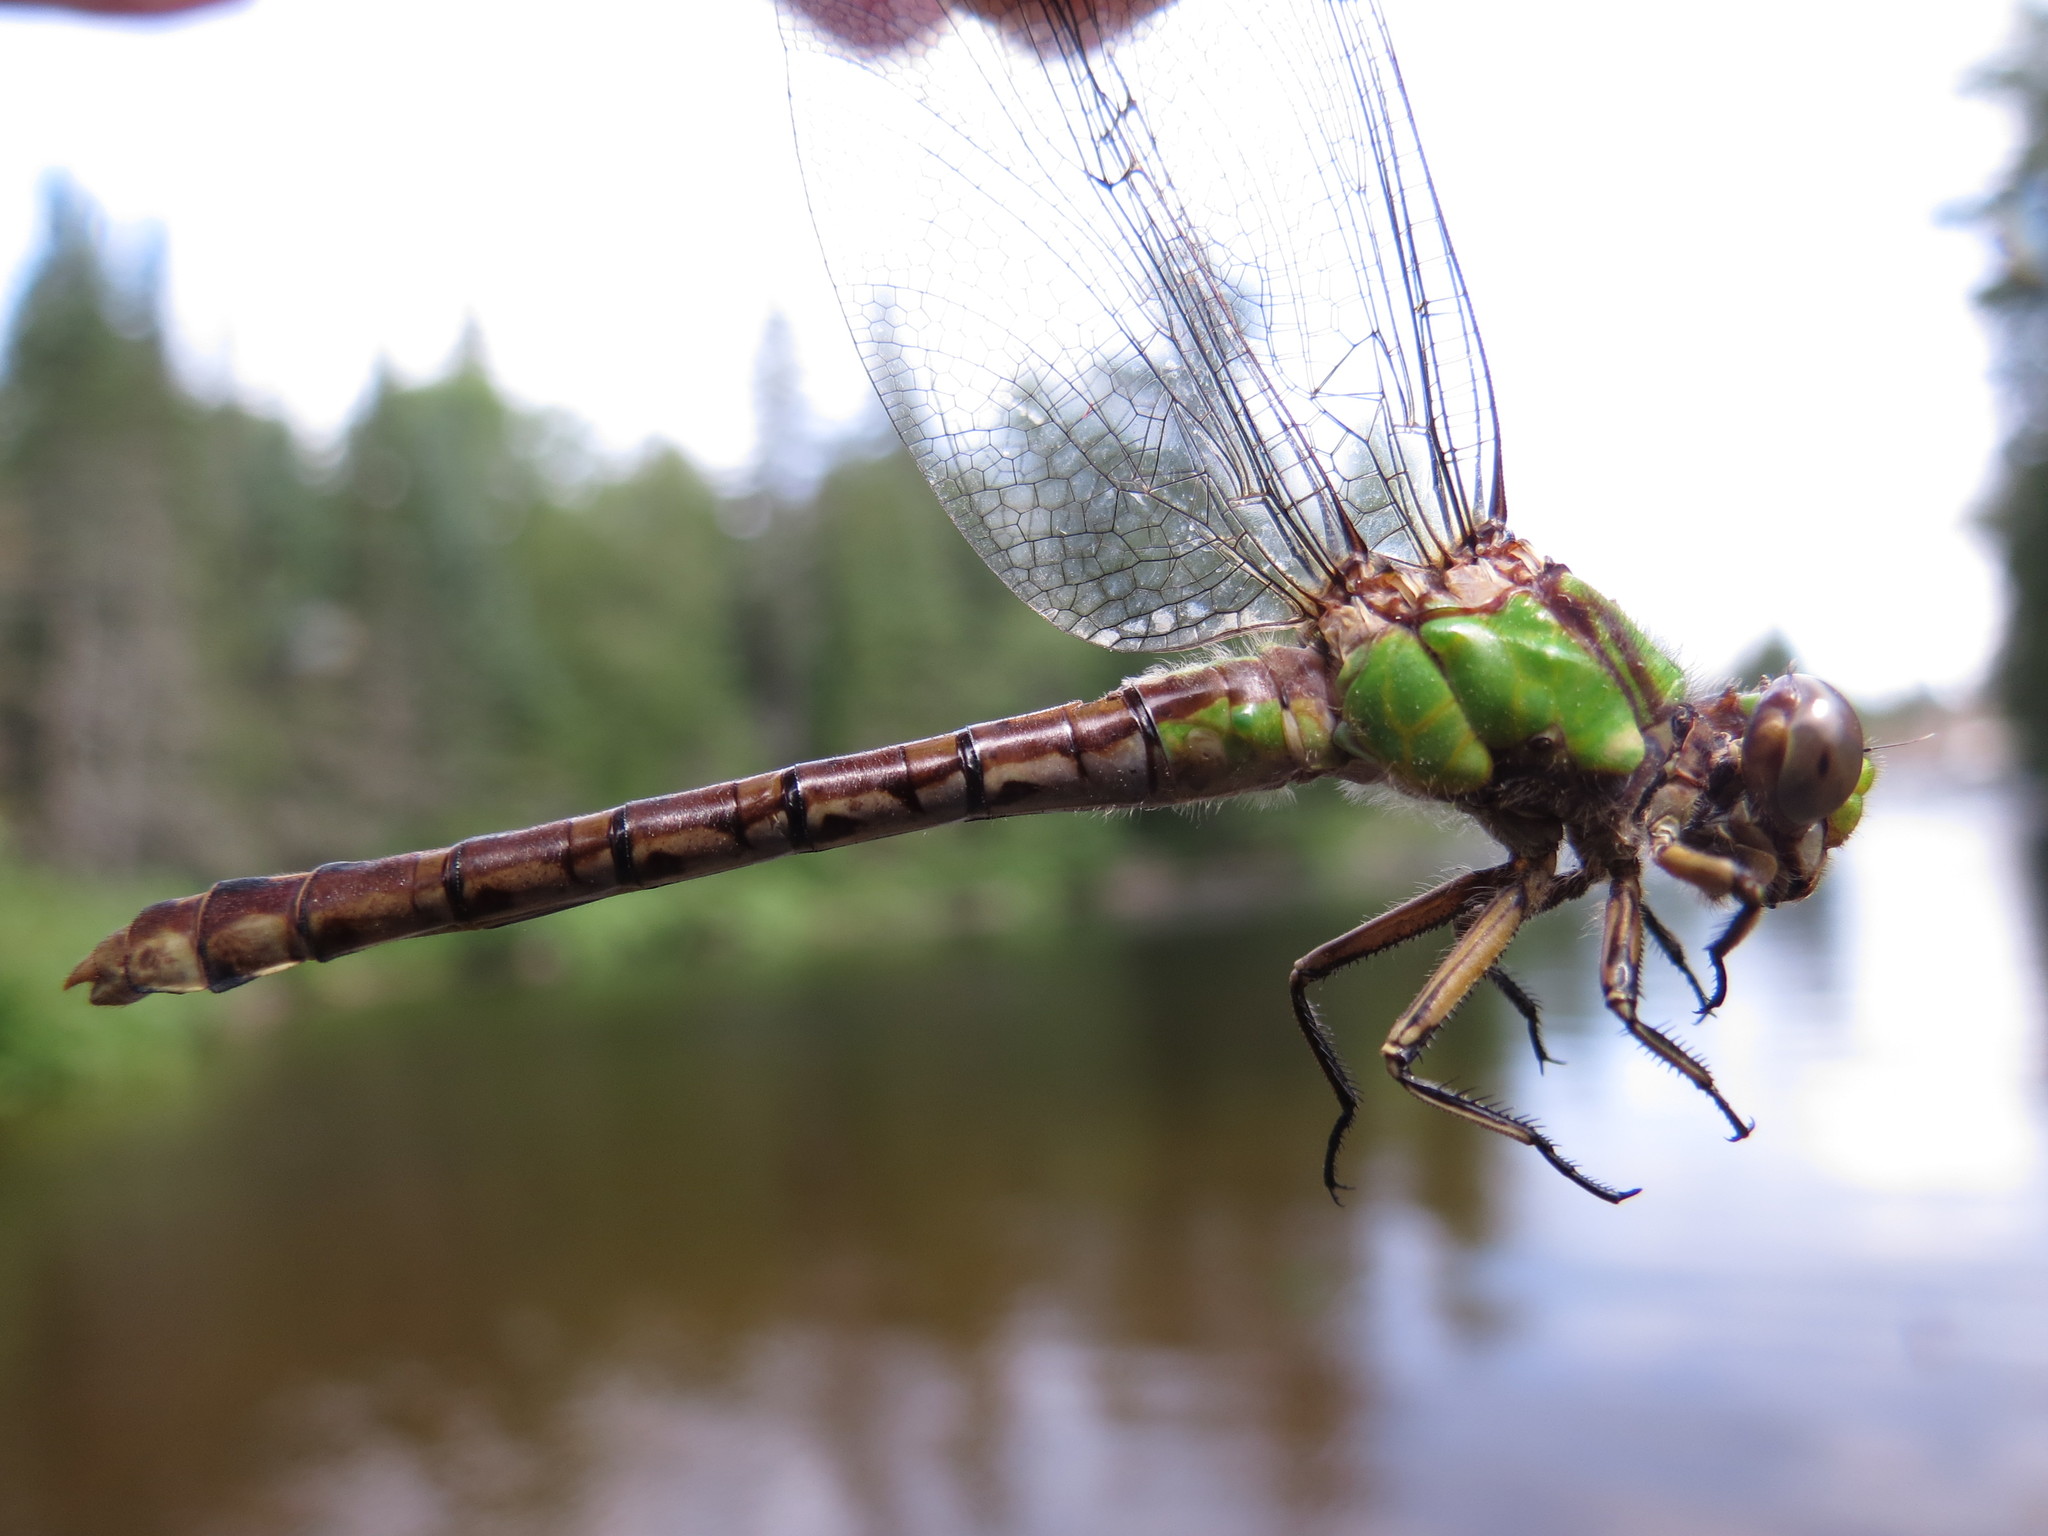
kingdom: Animalia
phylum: Arthropoda
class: Insecta
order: Odonata
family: Gomphidae
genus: Ophiogomphus
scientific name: Ophiogomphus rupinsulensis
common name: Rusty snaketail
